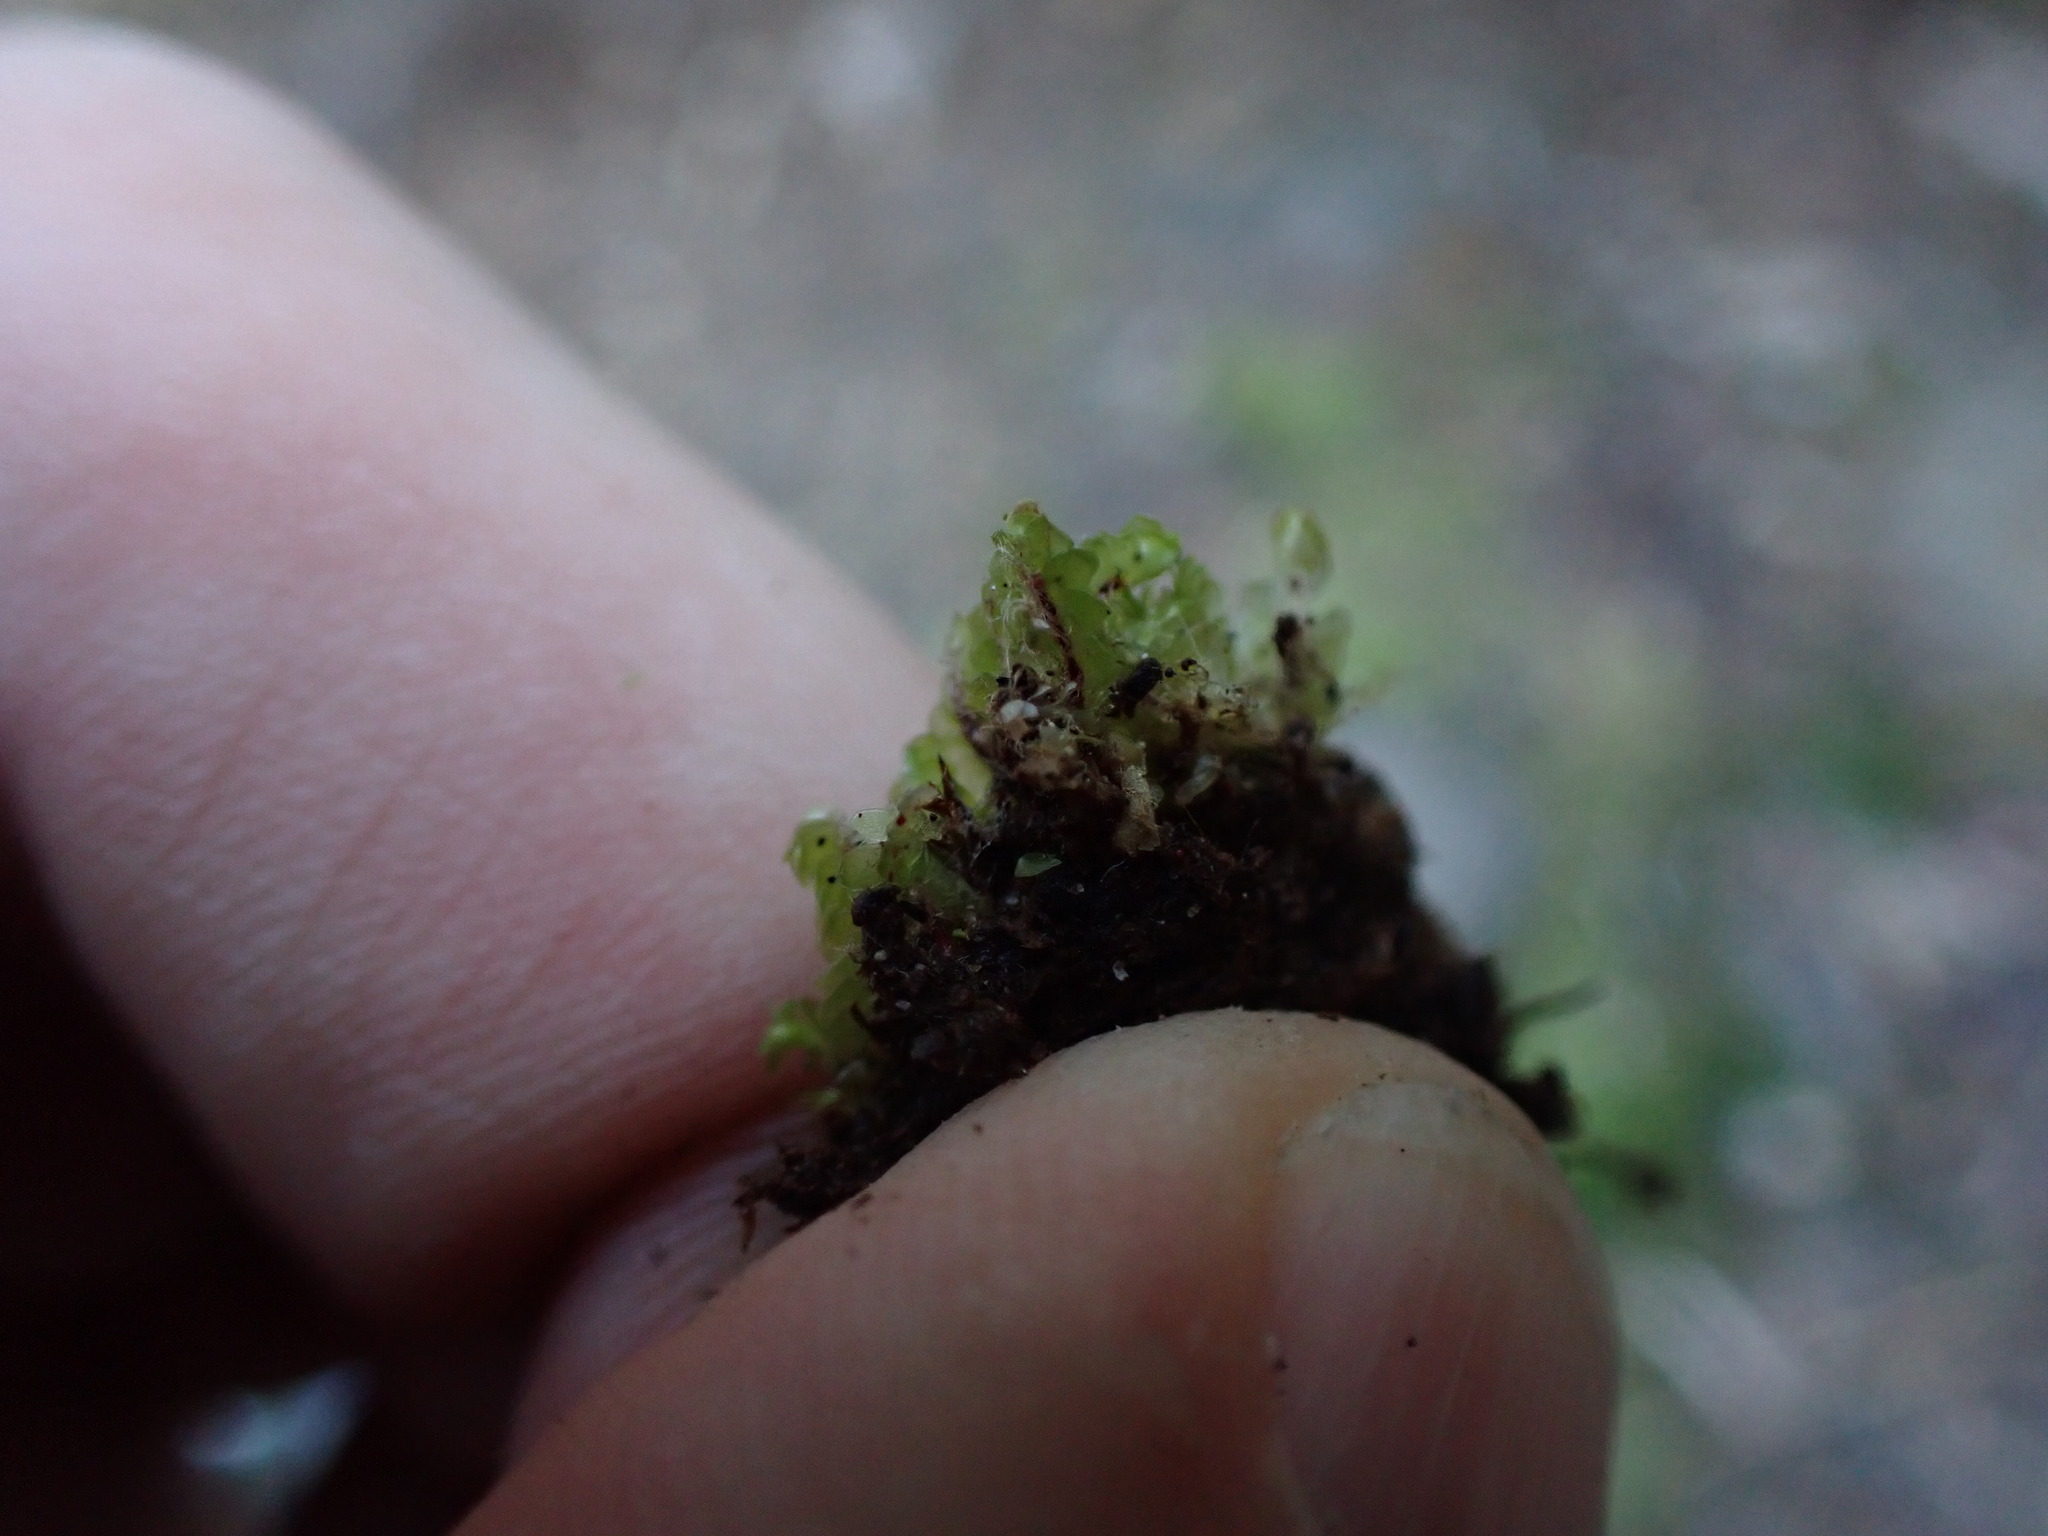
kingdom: Plantae
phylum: Marchantiophyta
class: Jungermanniopsida
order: Jungermanniales
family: Gyrothyraceae
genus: Gyrothyra
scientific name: Gyrothyra underwoodiana
